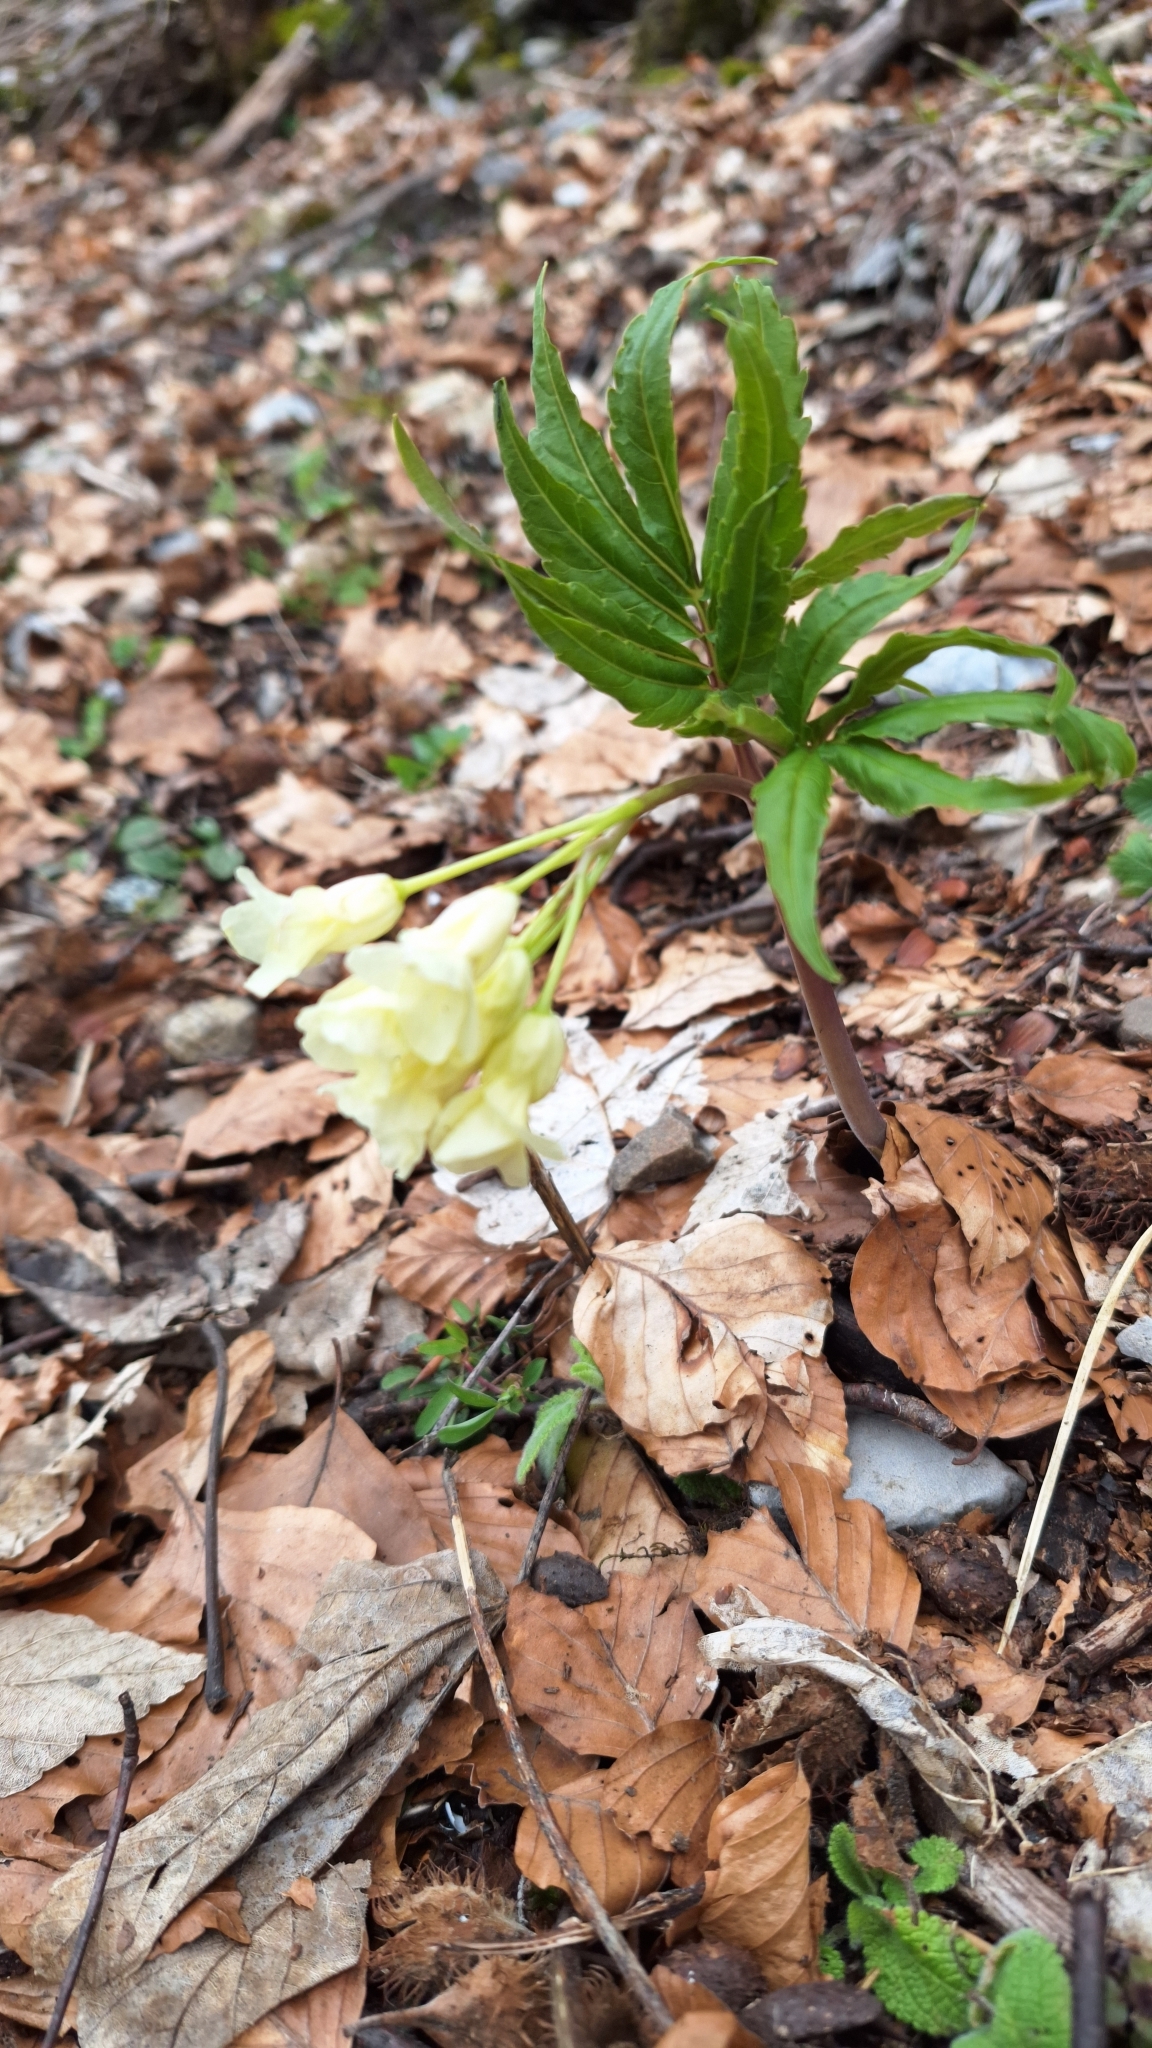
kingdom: Plantae
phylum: Tracheophyta
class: Magnoliopsida
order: Brassicales
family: Brassicaceae
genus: Cardamine
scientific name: Cardamine enneaphyllos
